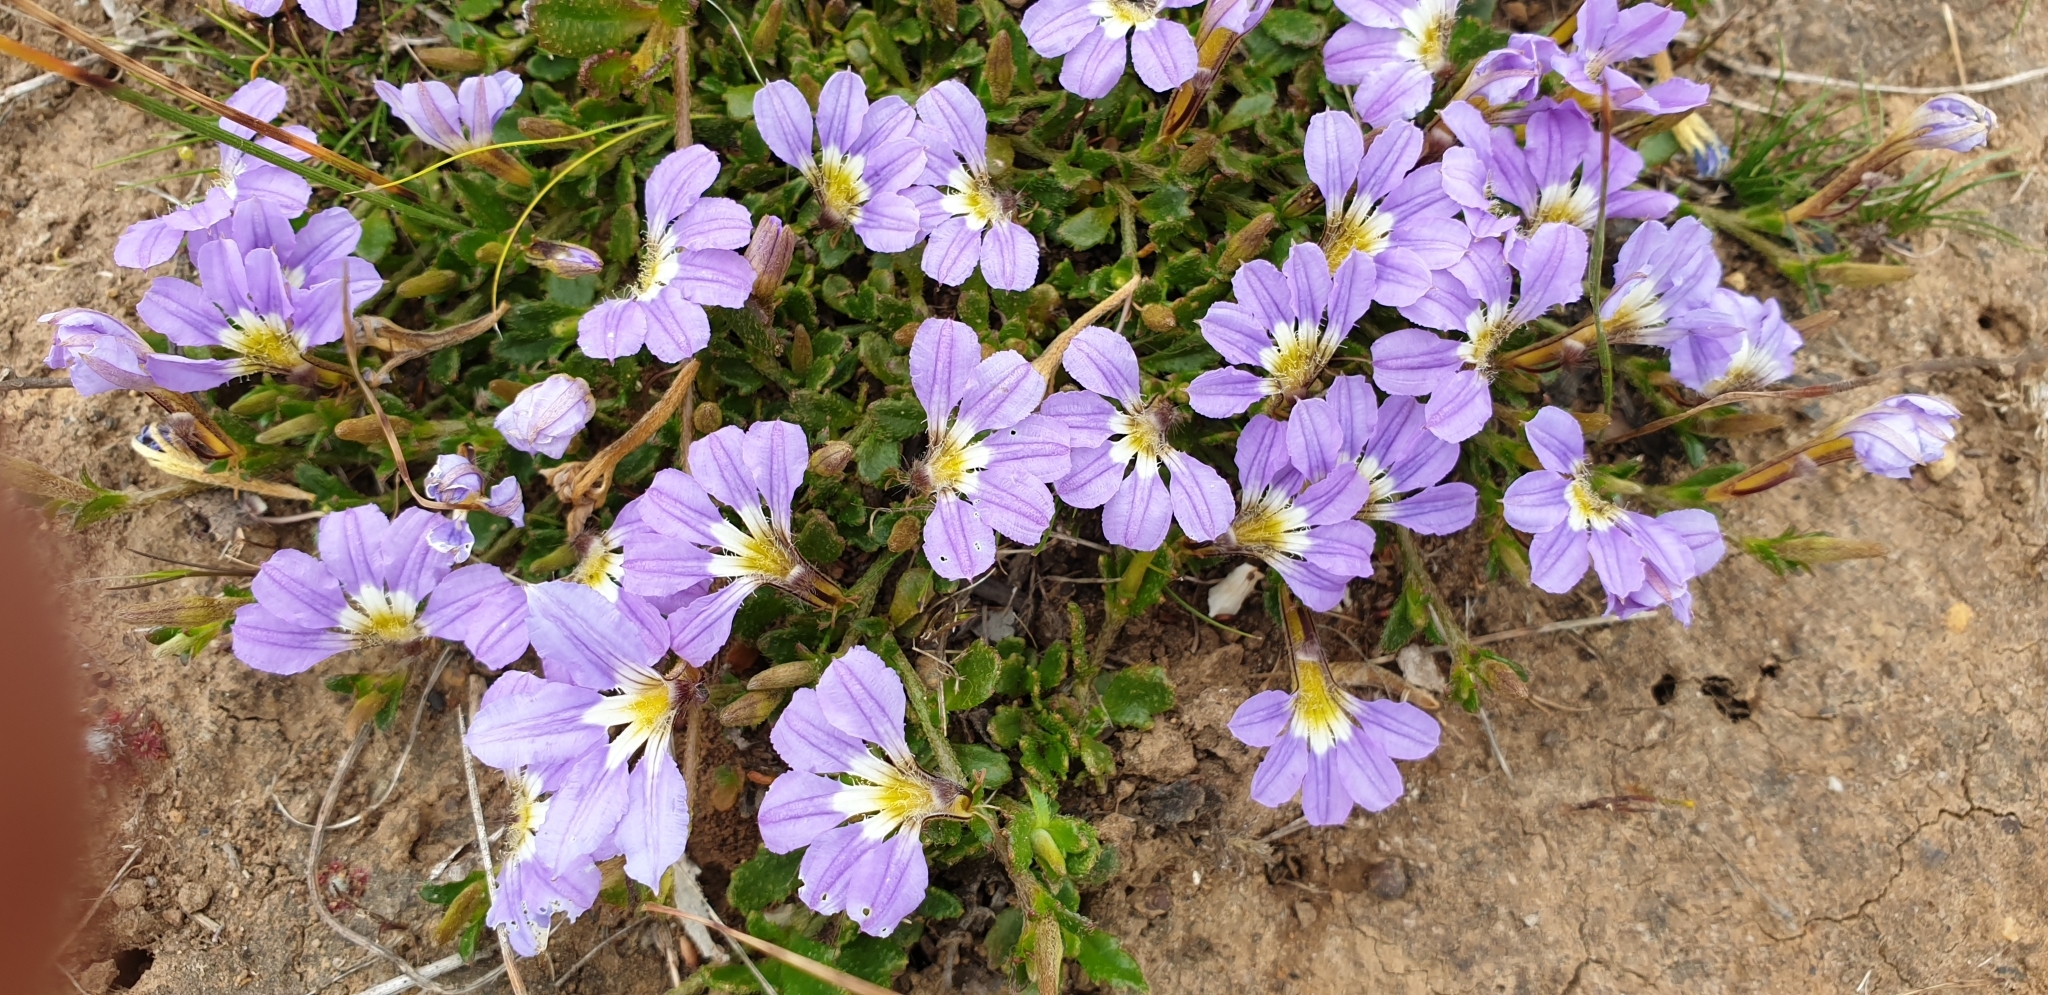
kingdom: Plantae
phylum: Tracheophyta
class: Magnoliopsida
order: Asterales
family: Goodeniaceae
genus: Scaevola
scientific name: Scaevola aemula
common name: Common fanflower
